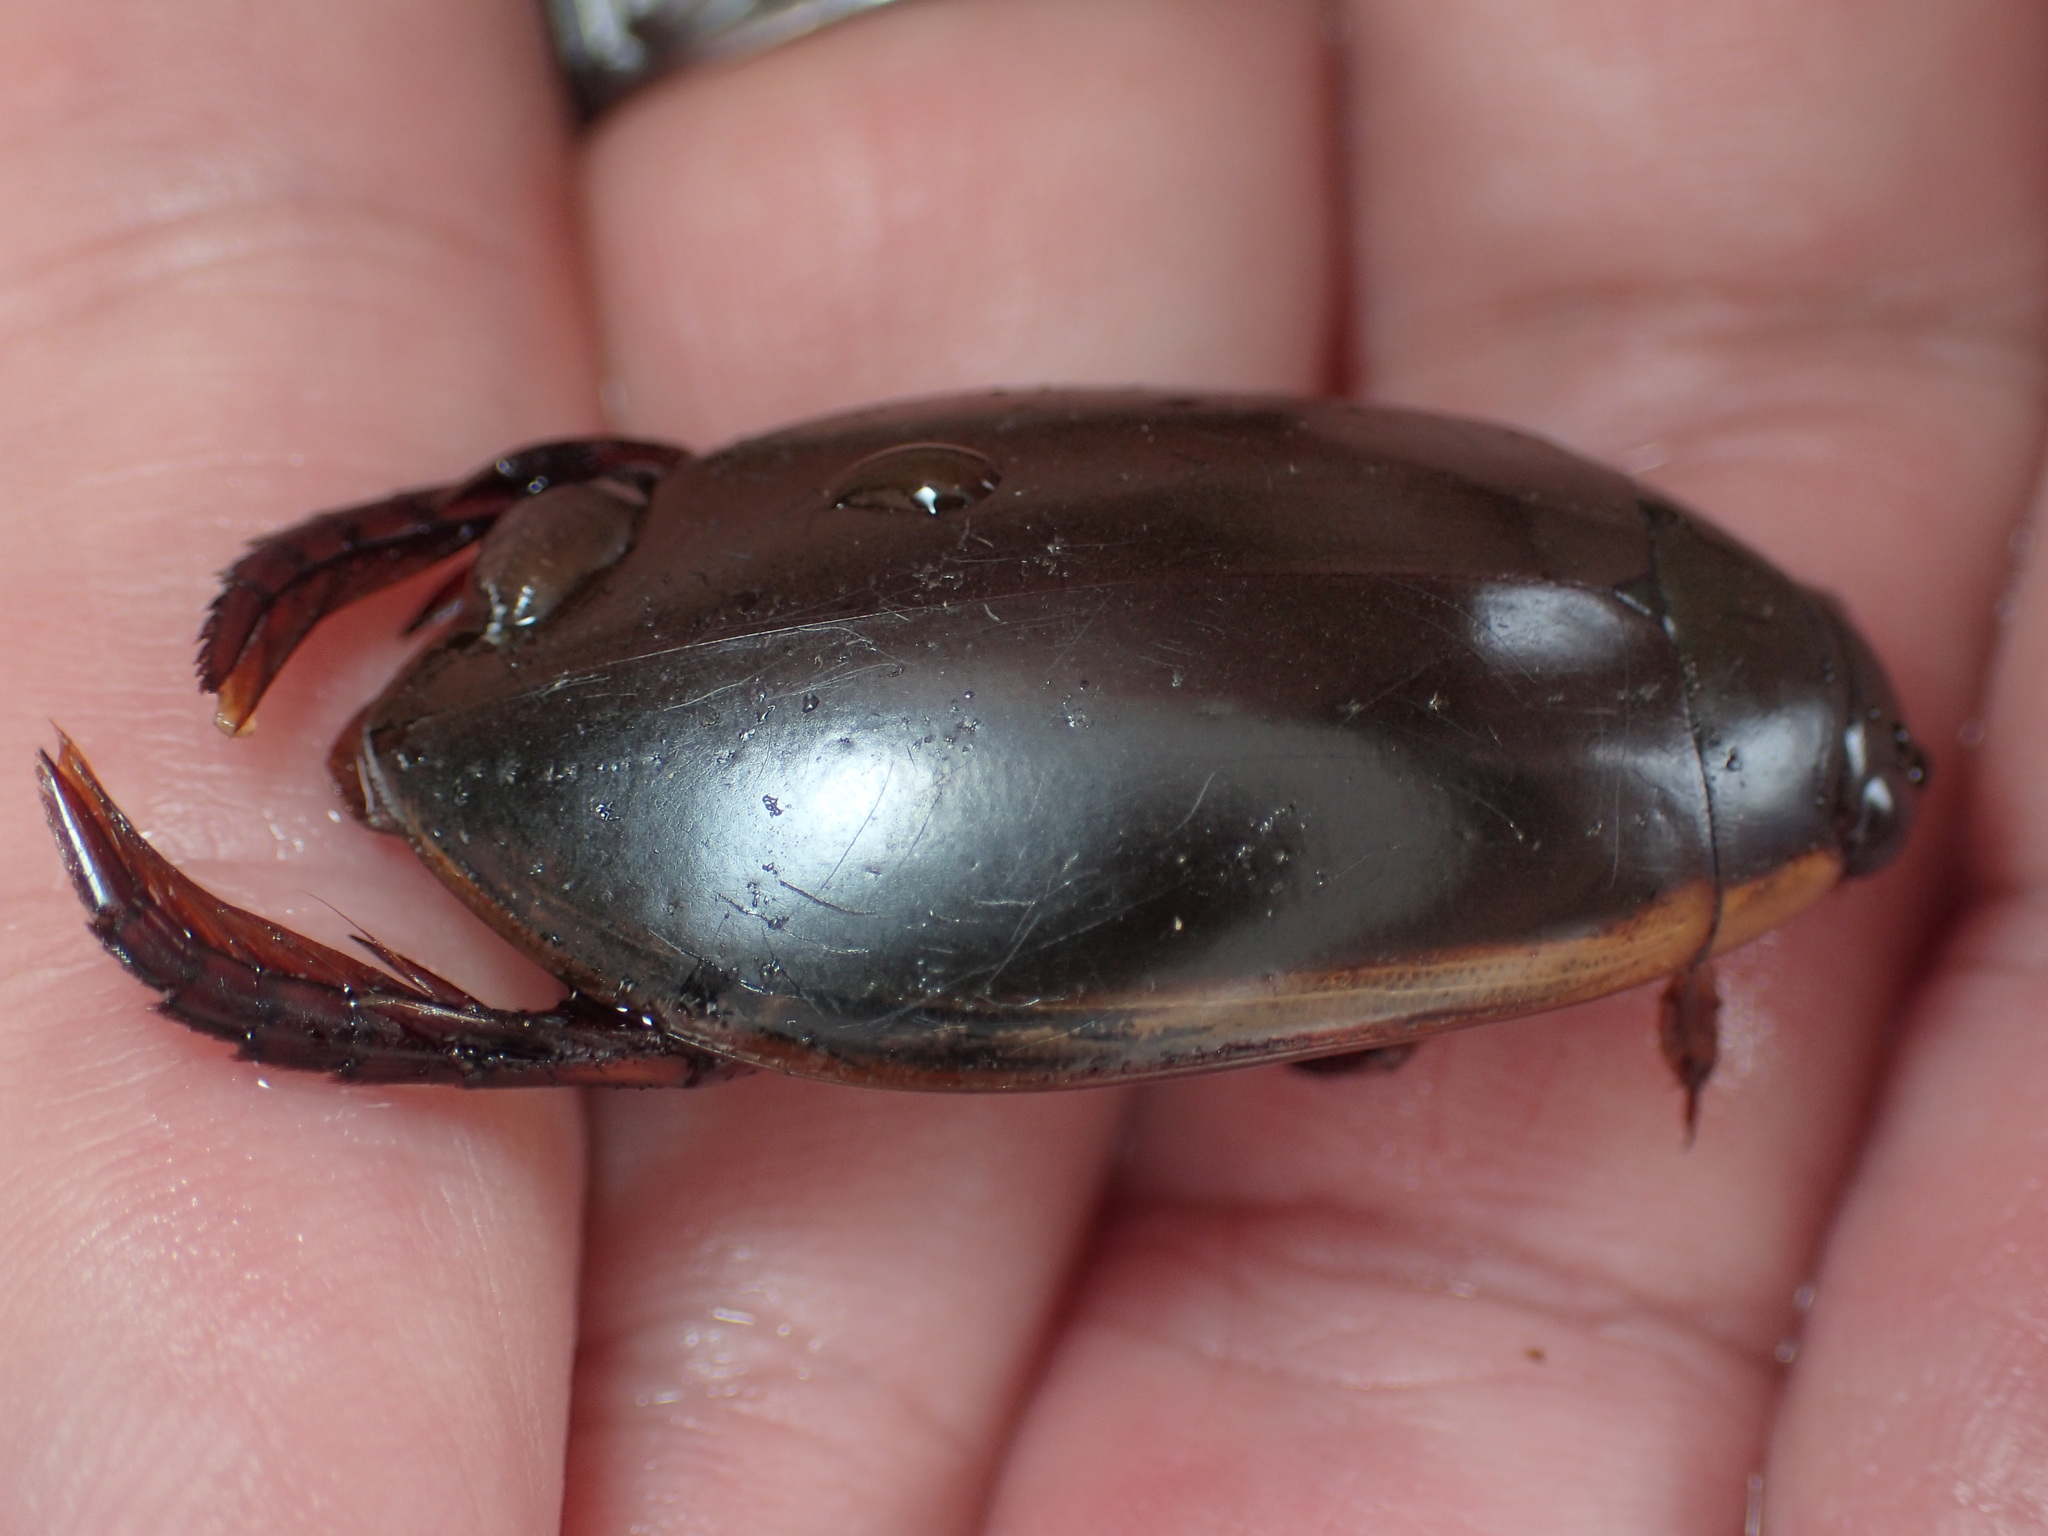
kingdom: Animalia
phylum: Arthropoda
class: Insecta
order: Coleoptera
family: Dytiscidae
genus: Cybister
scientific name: Cybister fimbriolatus
